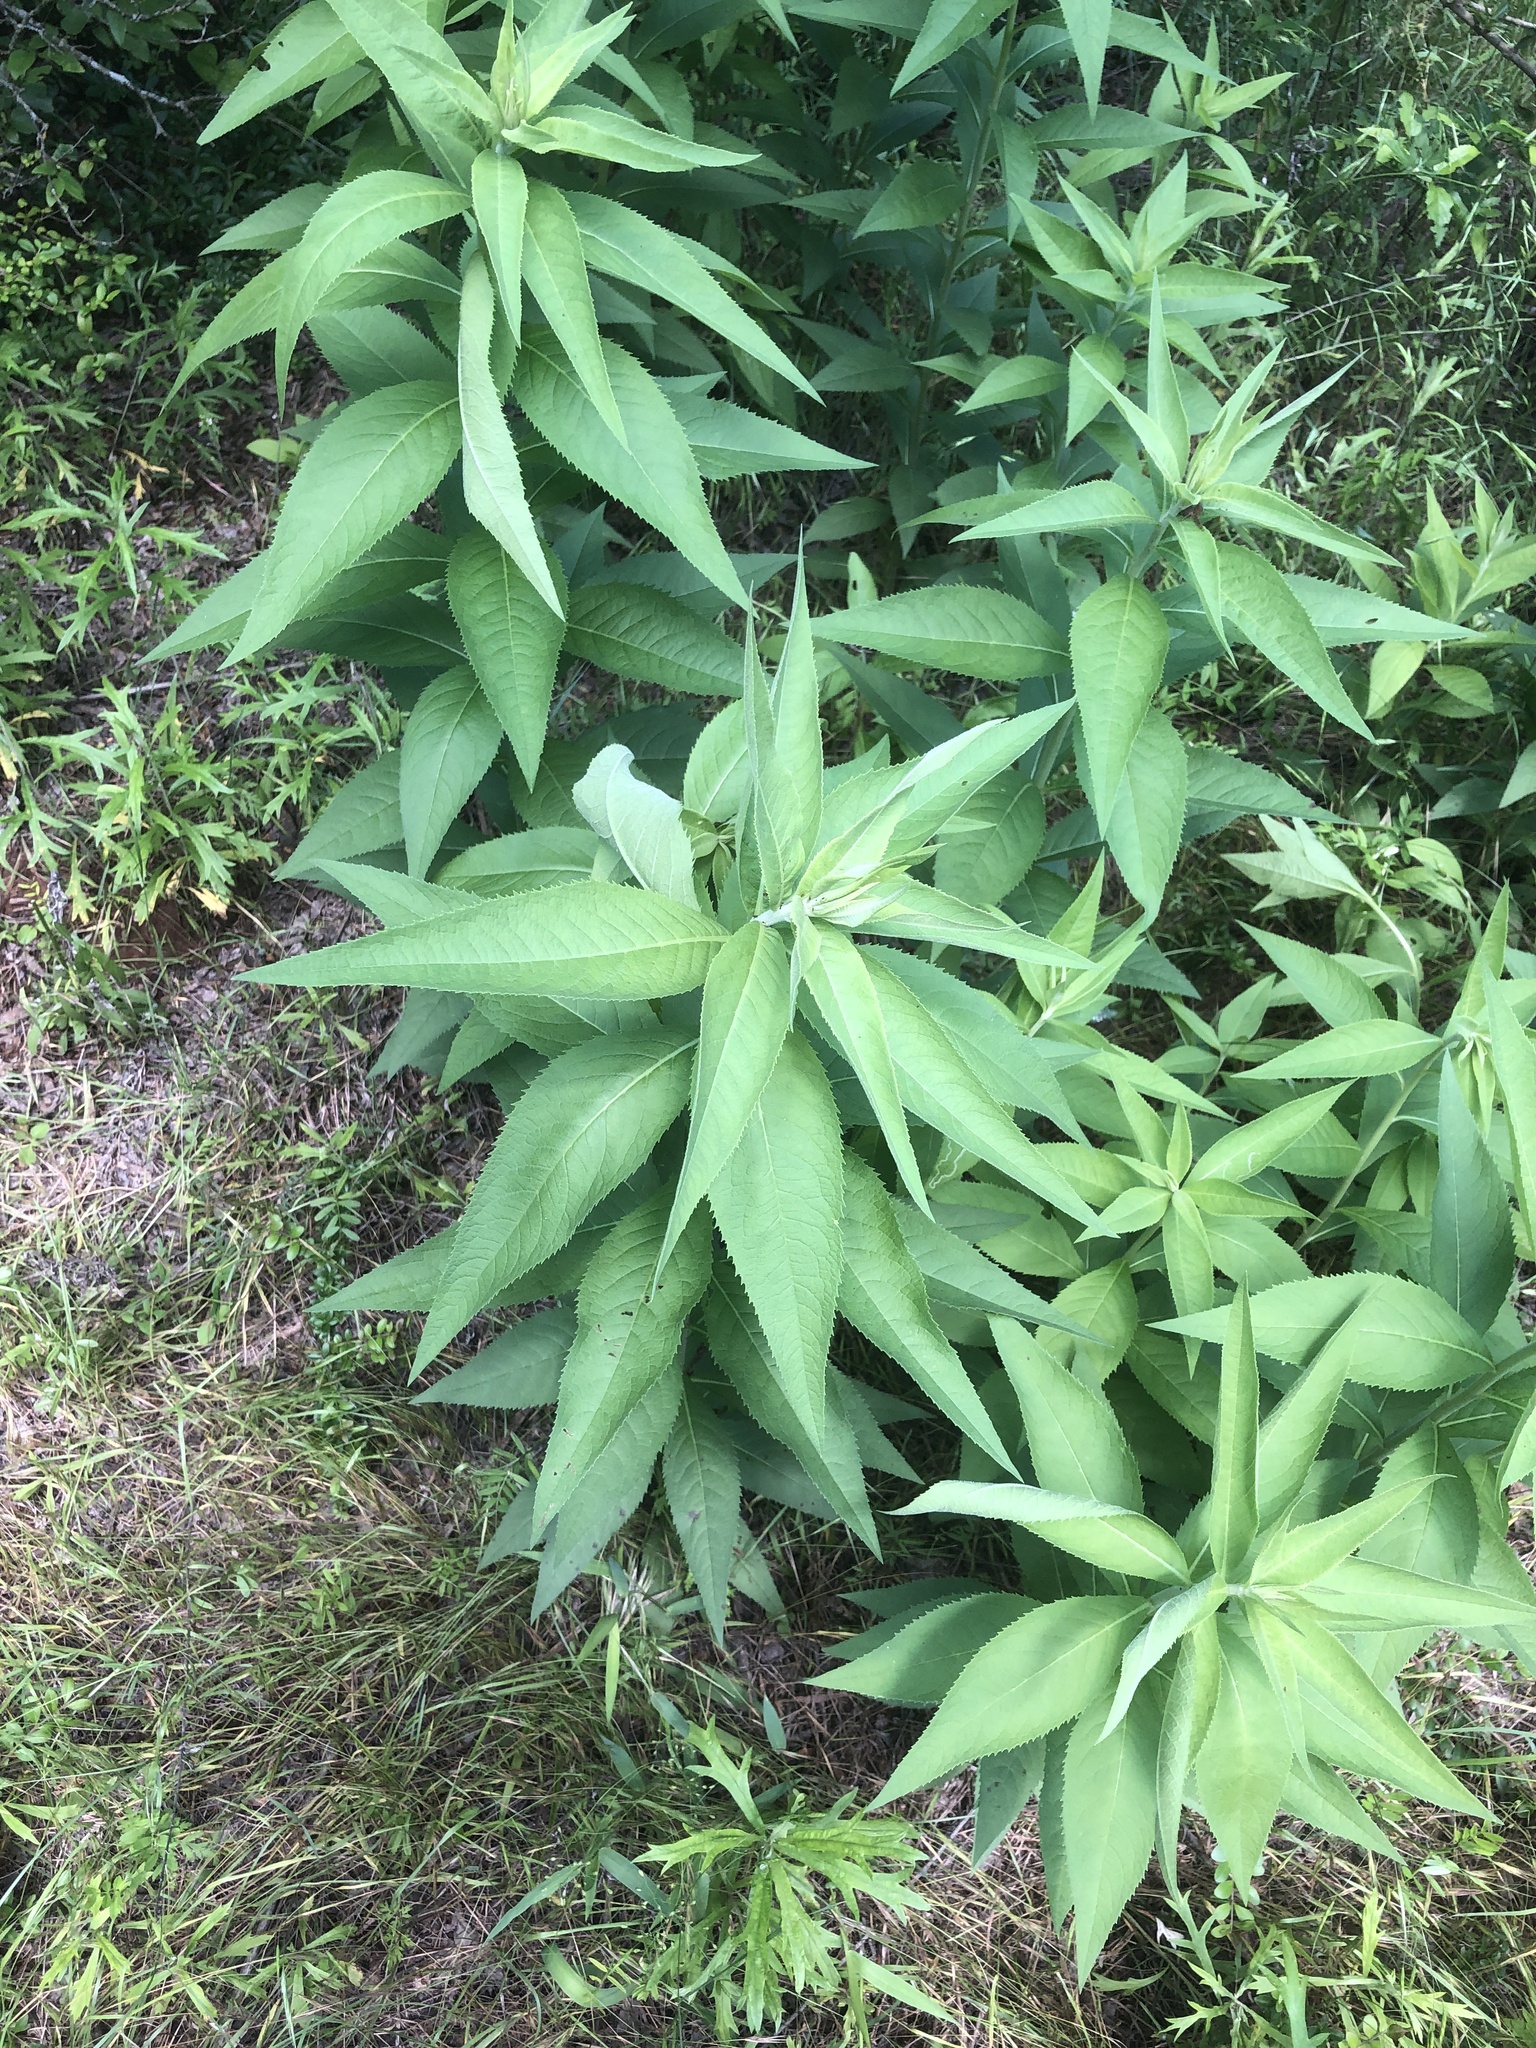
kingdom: Plantae
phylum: Tracheophyta
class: Magnoliopsida
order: Asterales
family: Asteraceae
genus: Vernonia
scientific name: Vernonia baldwinii
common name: Western ironweed
